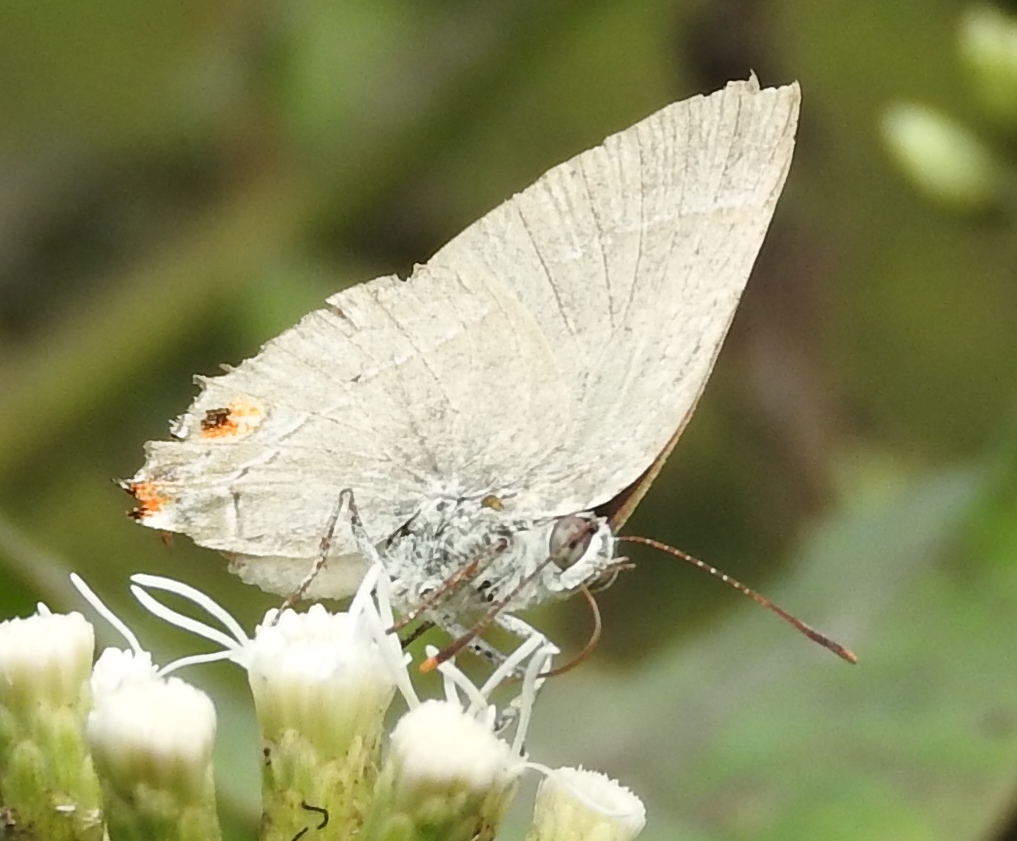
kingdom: Animalia
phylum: Arthropoda
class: Insecta
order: Lepidoptera
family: Lycaenidae
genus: Thecla
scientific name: Thecla marius
